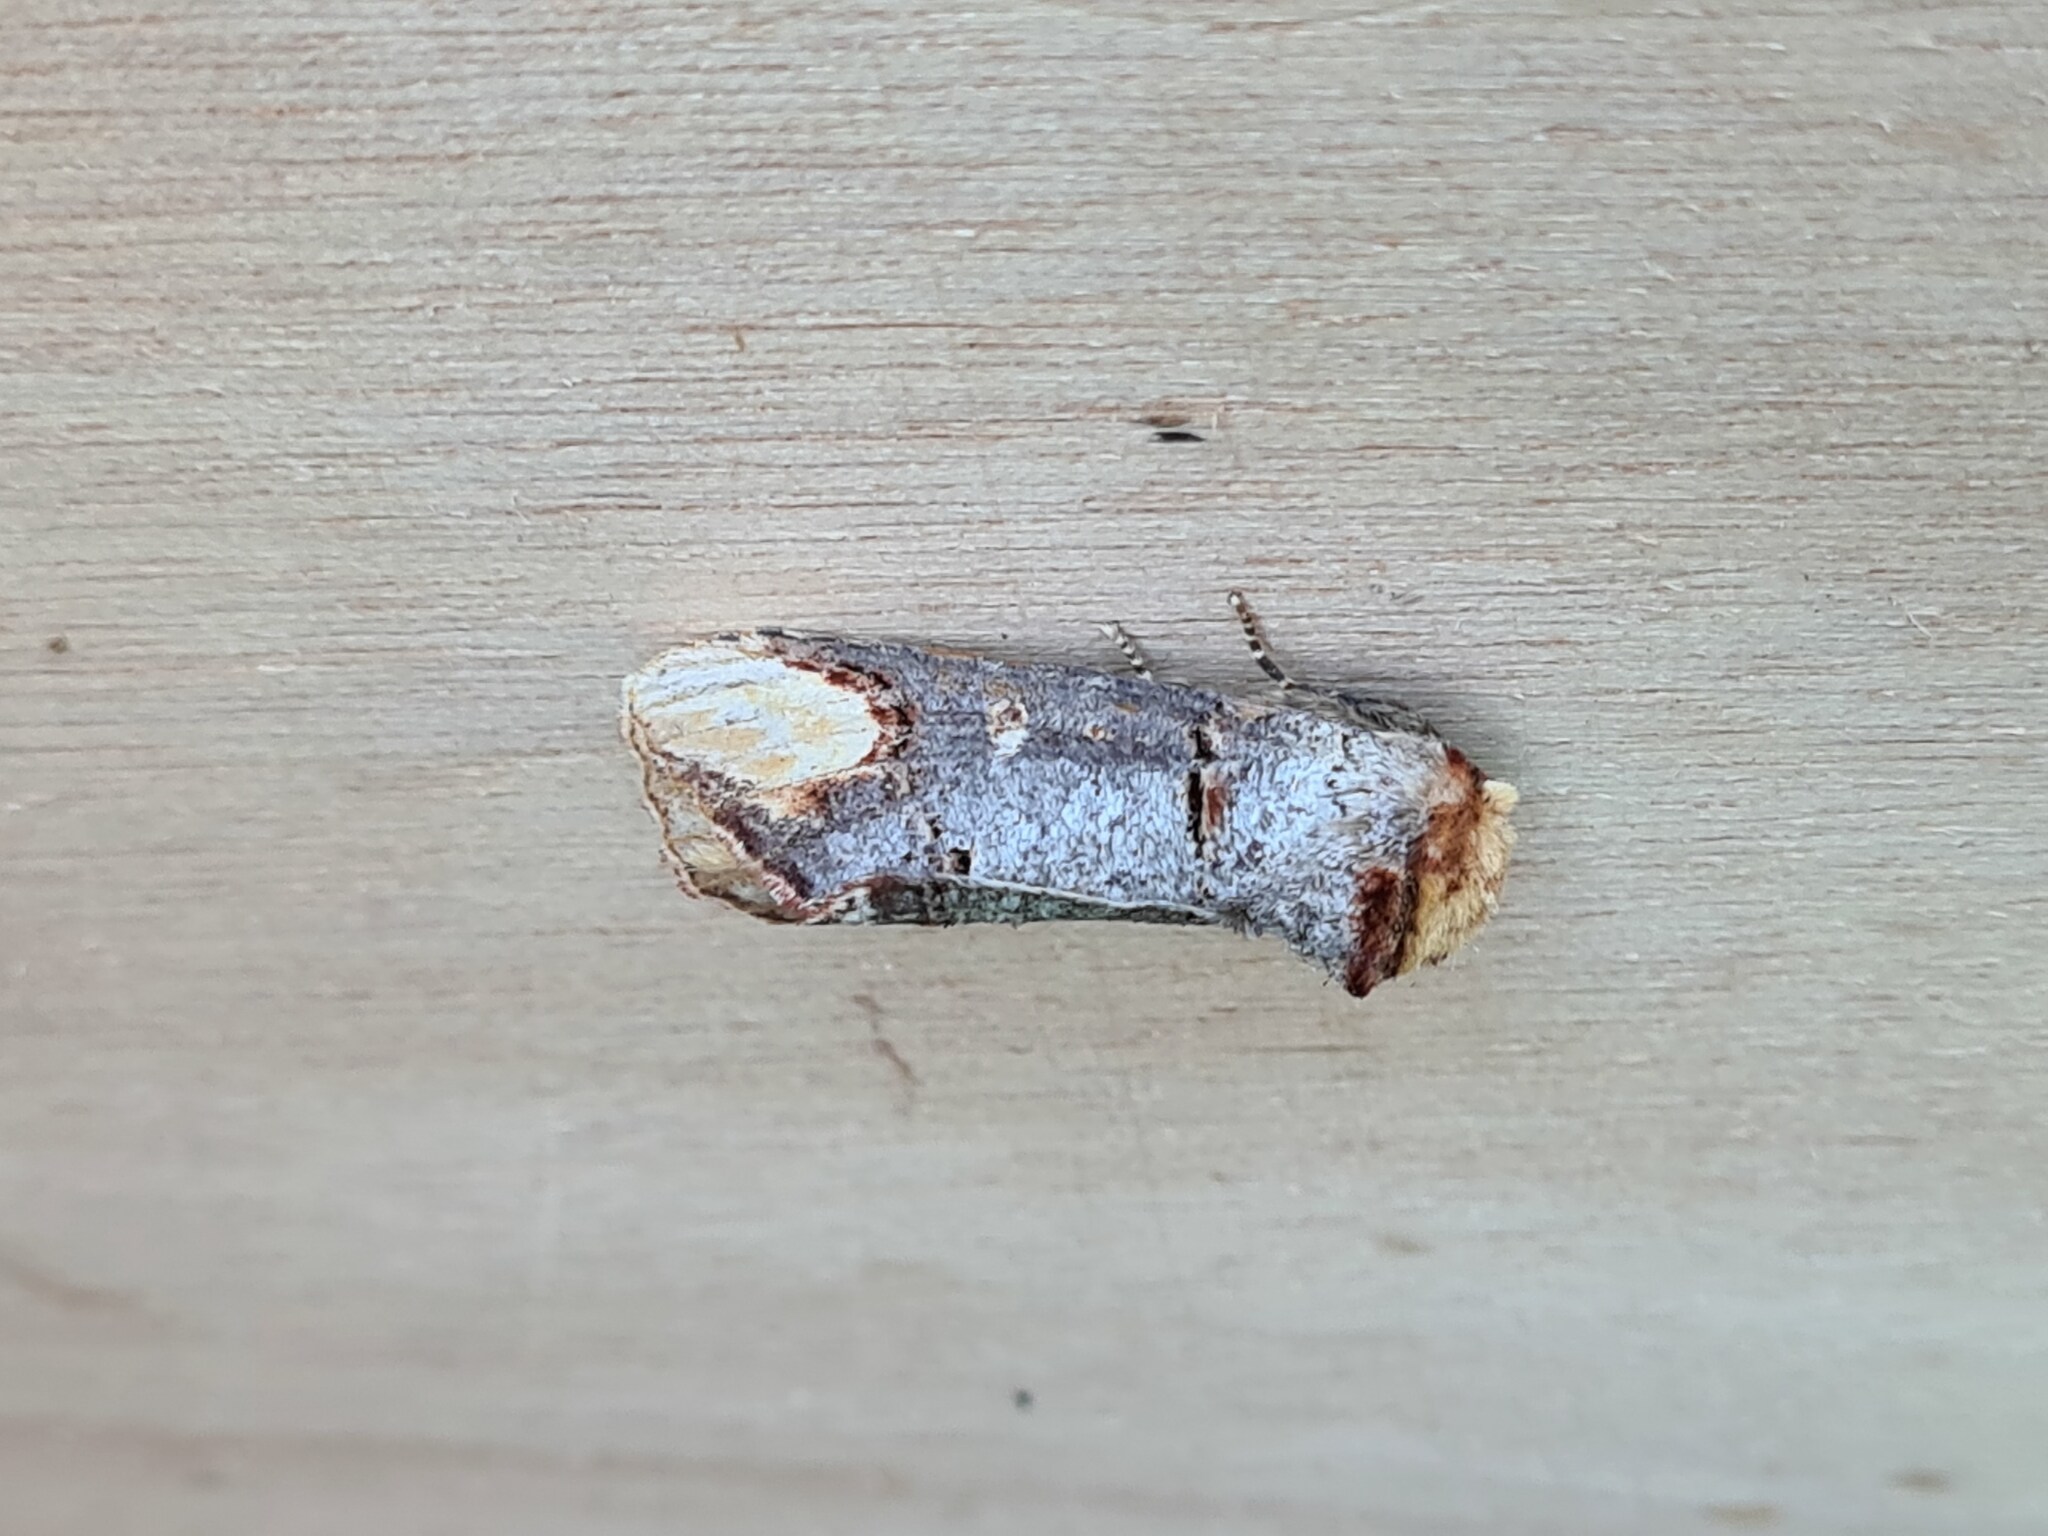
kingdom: Animalia
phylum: Arthropoda
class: Insecta
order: Lepidoptera
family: Notodontidae
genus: Phalera
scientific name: Phalera bucephala
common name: Buff-tip
